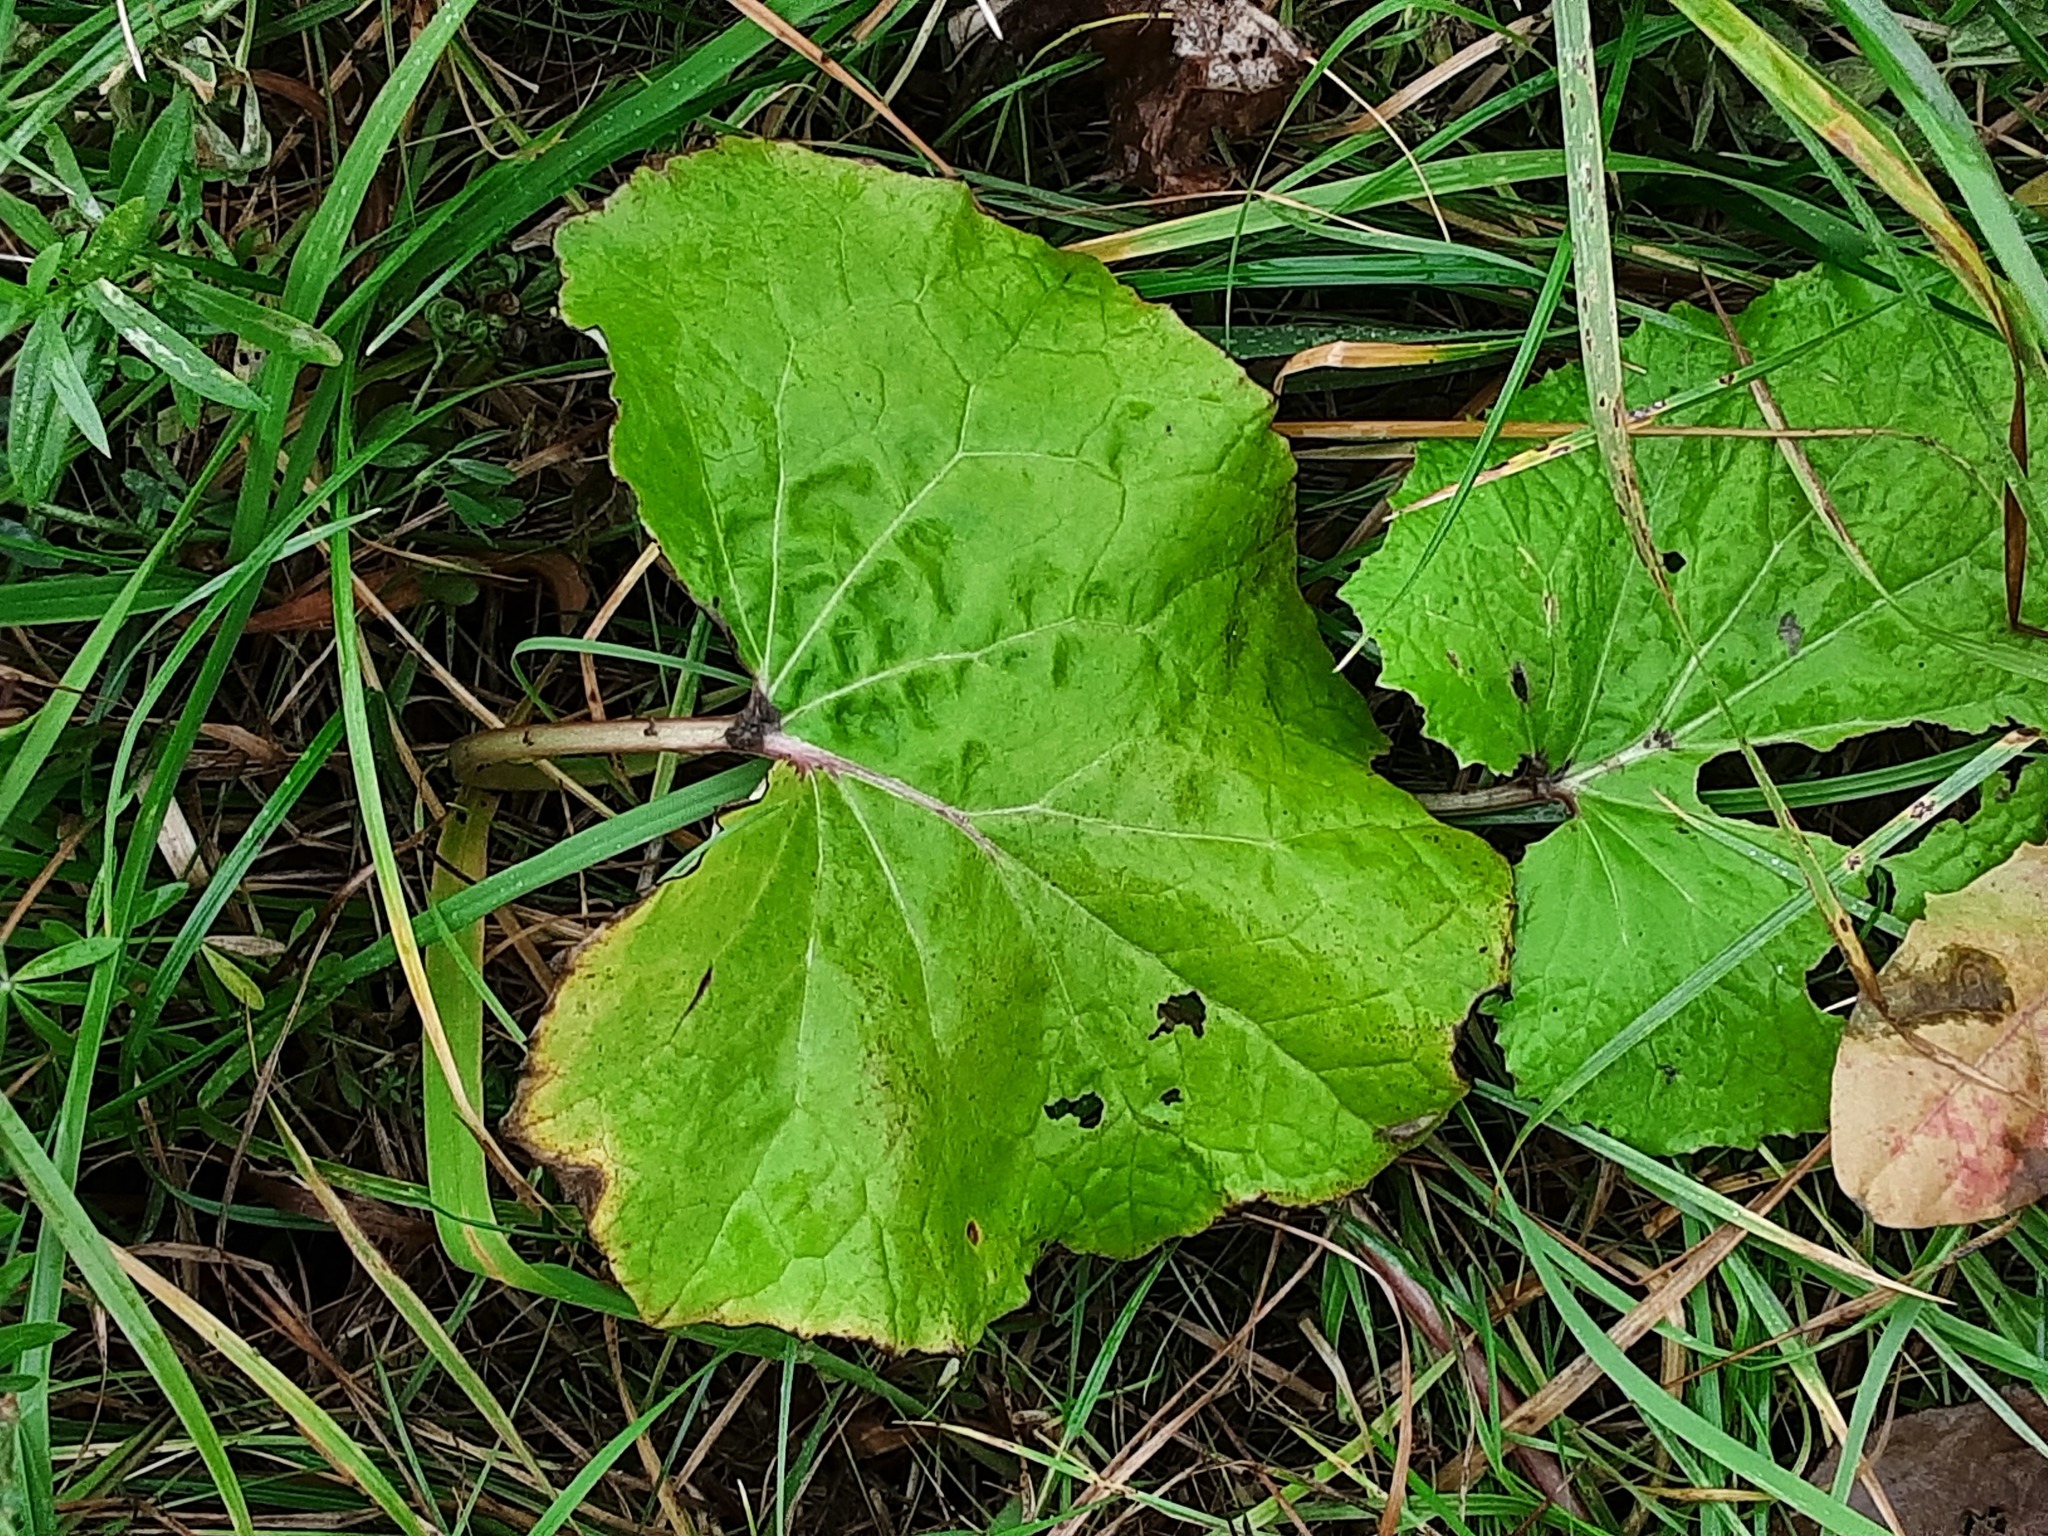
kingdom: Plantae
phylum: Tracheophyta
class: Magnoliopsida
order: Asterales
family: Asteraceae
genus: Tussilago
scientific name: Tussilago farfara
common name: Coltsfoot
